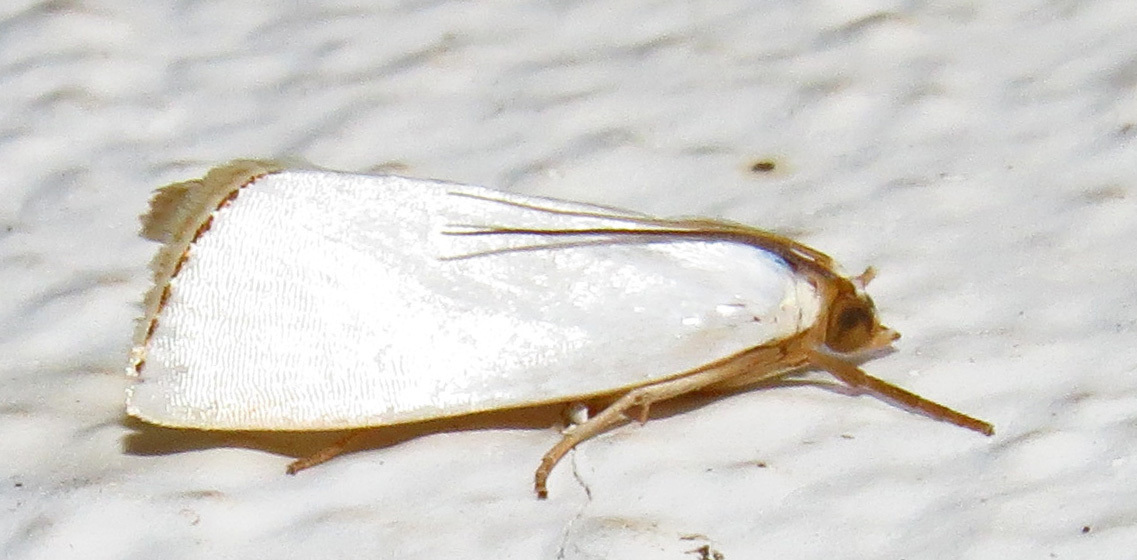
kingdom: Animalia
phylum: Arthropoda
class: Insecta
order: Lepidoptera
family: Crambidae
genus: Argyria
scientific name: Argyria nivalis
